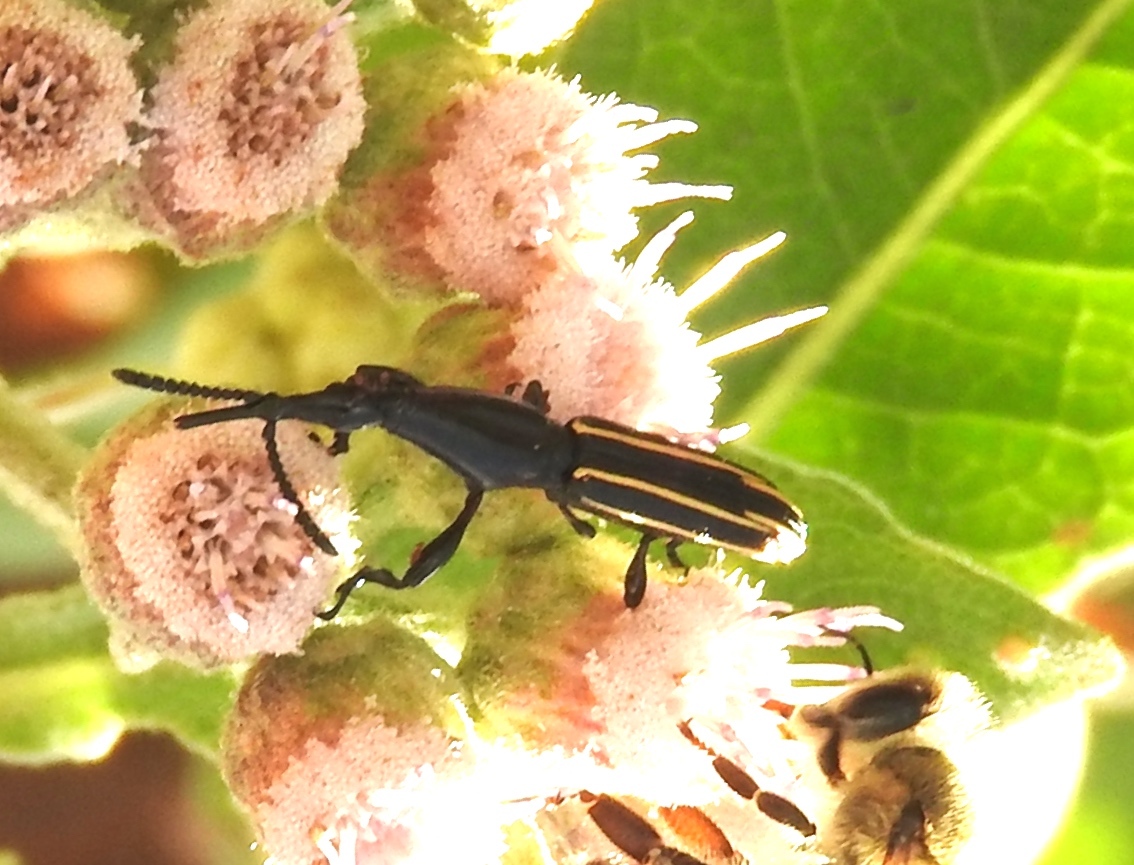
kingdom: Animalia
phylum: Arthropoda
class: Insecta
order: Coleoptera
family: Brentidae
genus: Brentus
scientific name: Brentus
